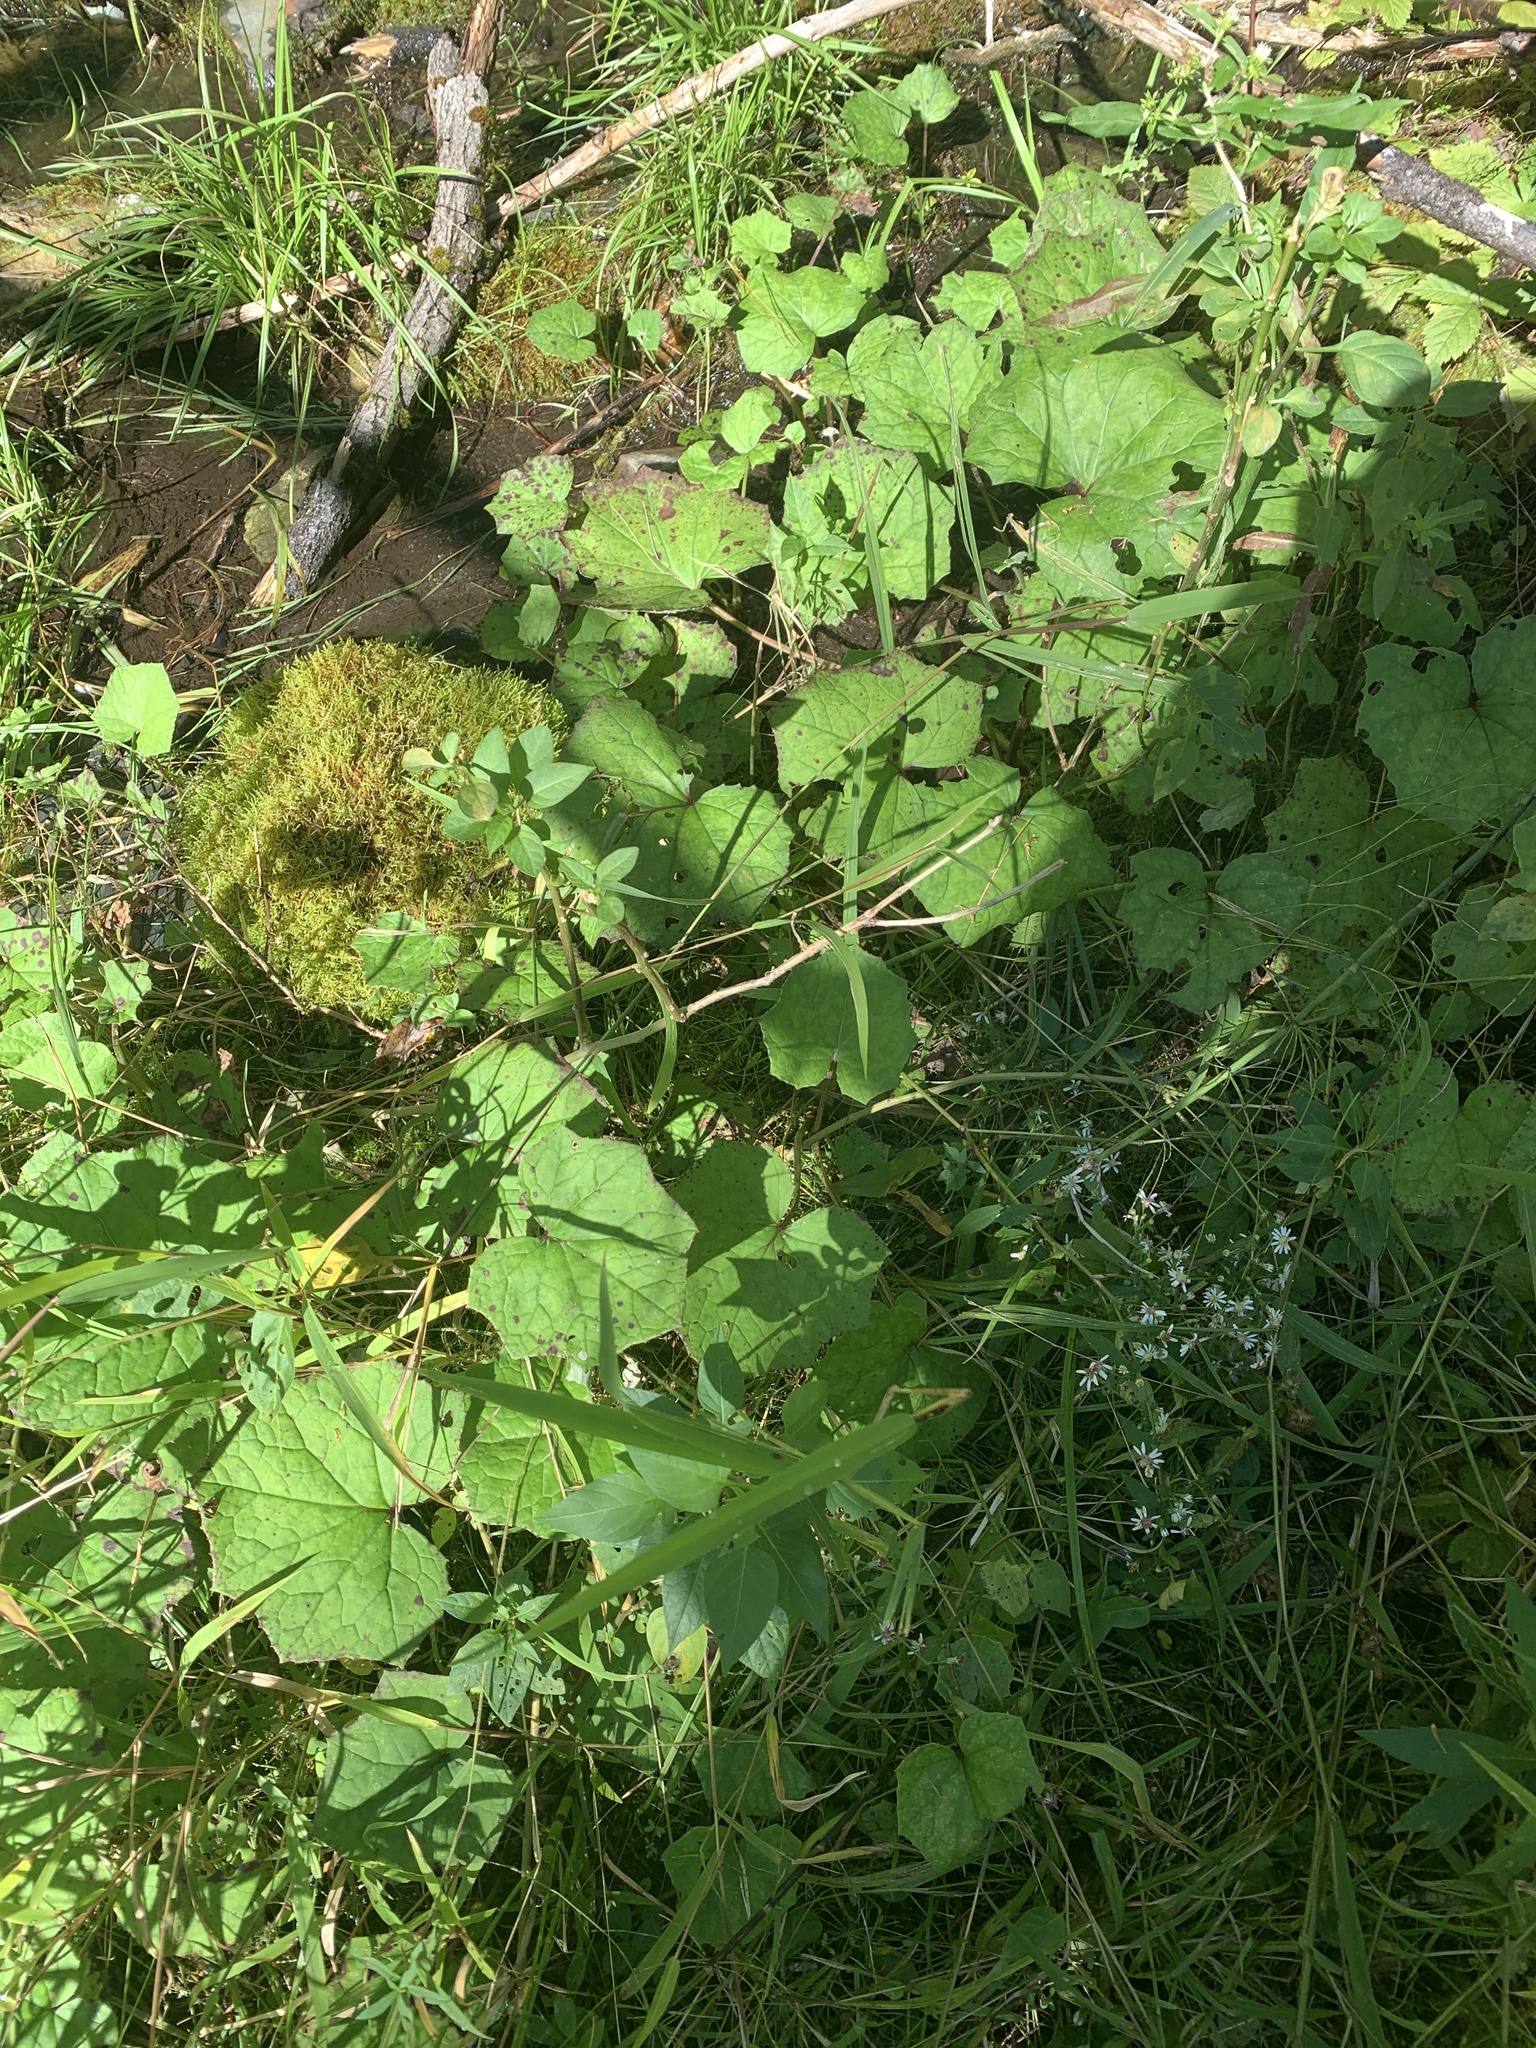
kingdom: Plantae
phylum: Tracheophyta
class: Magnoliopsida
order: Asterales
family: Asteraceae
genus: Tussilago
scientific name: Tussilago farfara
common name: Coltsfoot
